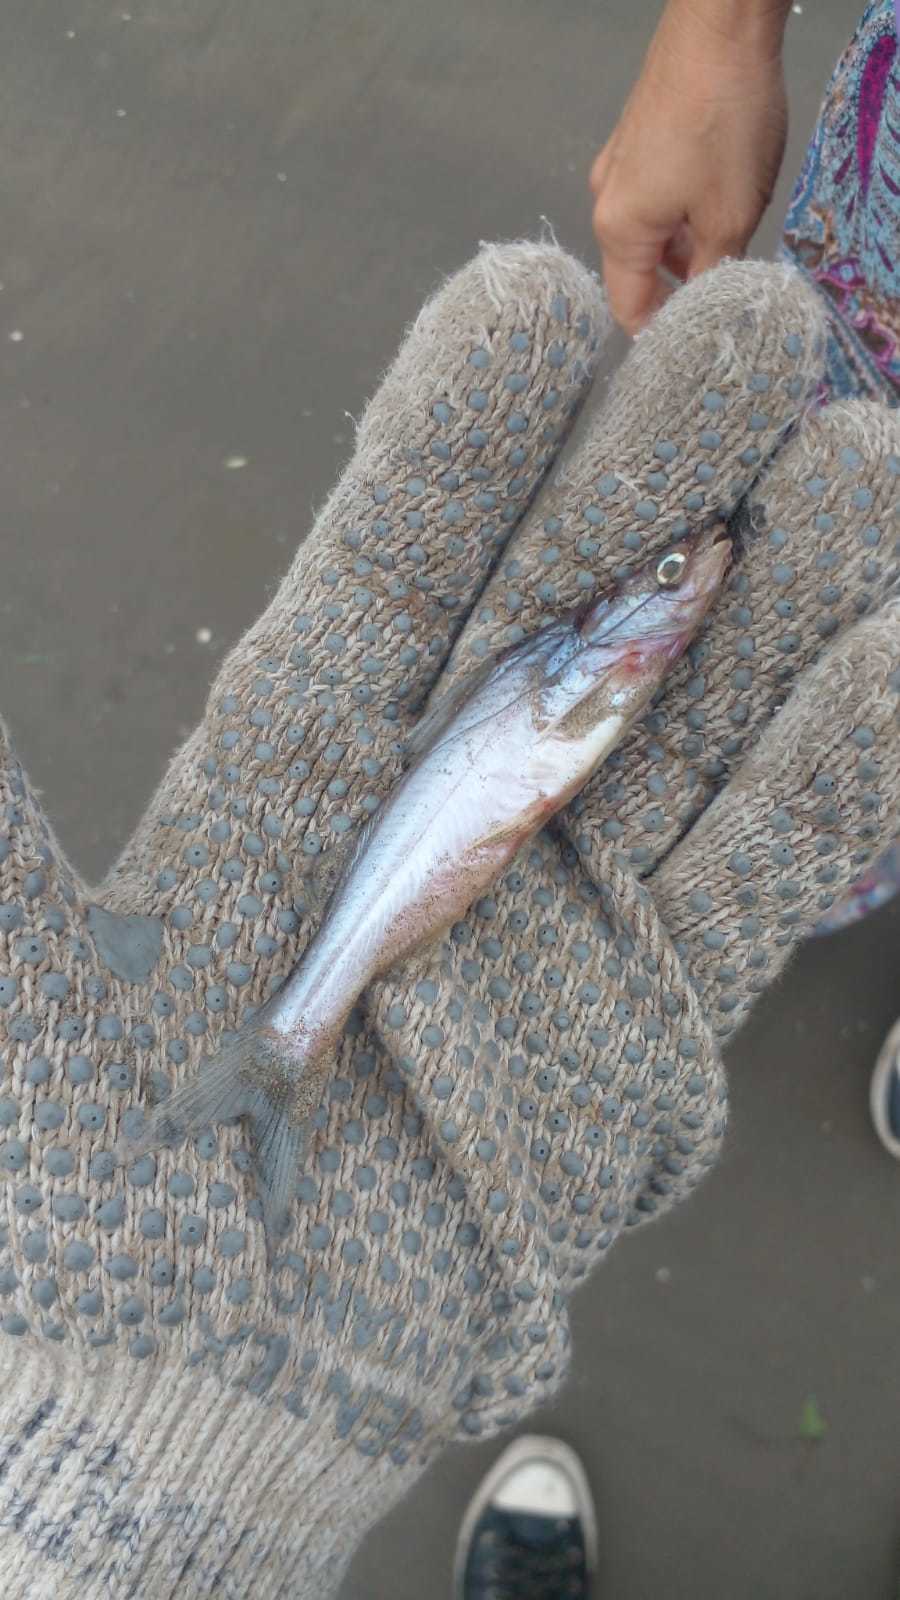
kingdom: Animalia
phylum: Chordata
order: Siluriformes
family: Pimelodidae
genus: Parapimelodus
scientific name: Parapimelodus valenciennis
